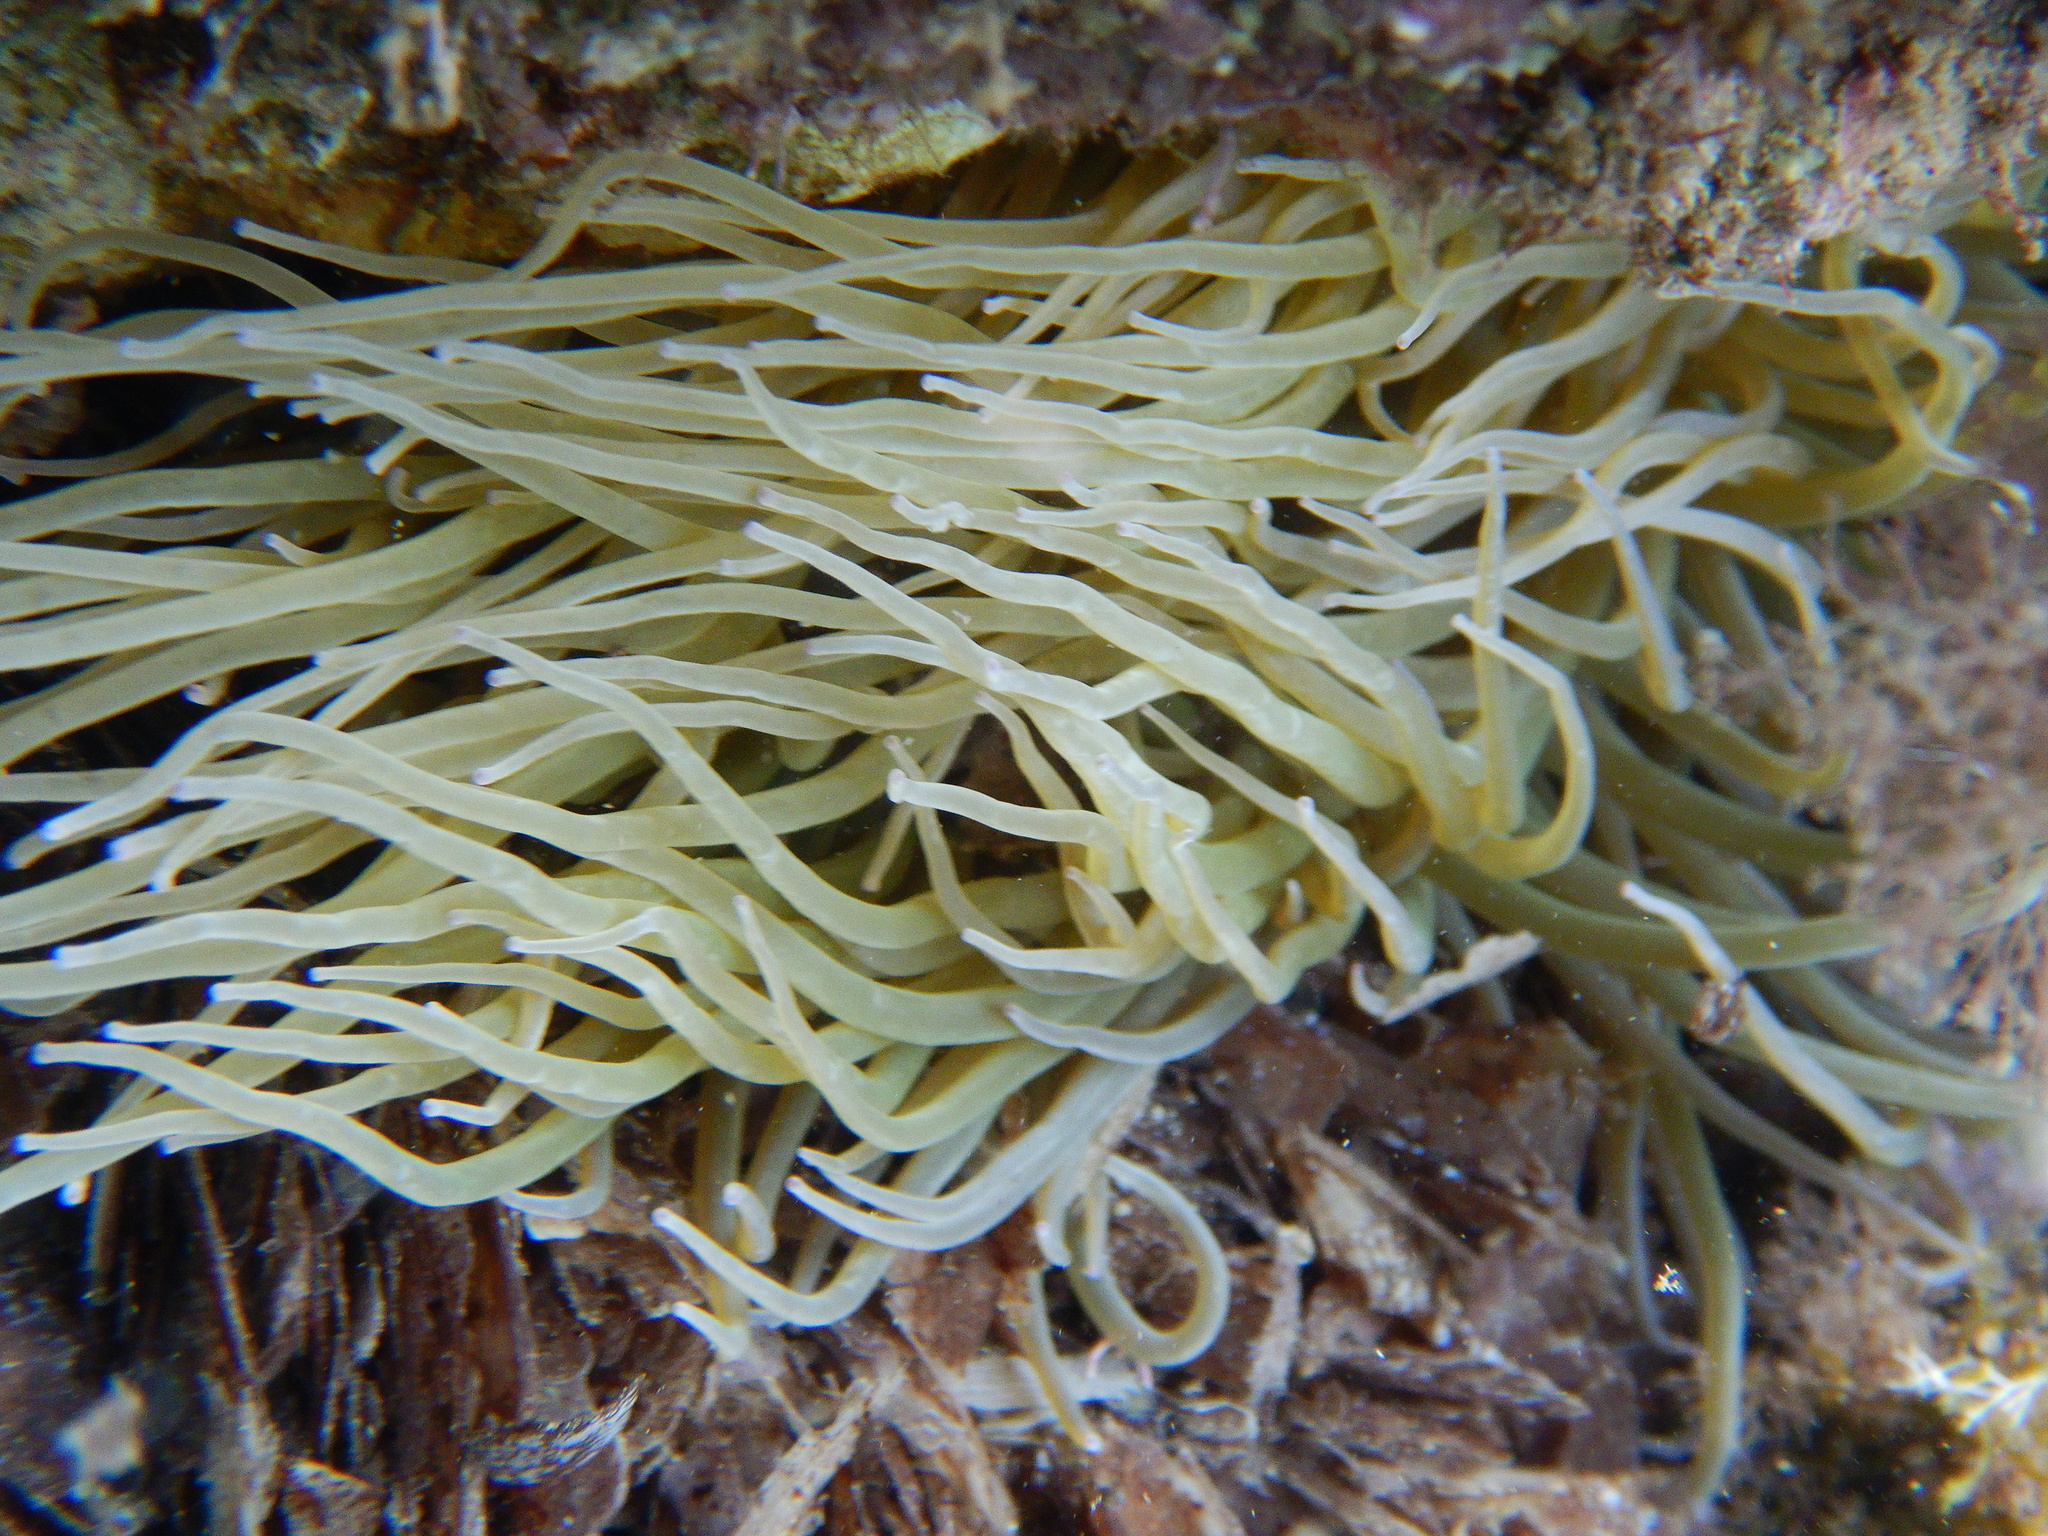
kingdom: Animalia
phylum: Cnidaria
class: Anthozoa
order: Actiniaria
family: Actiniidae
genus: Anemonia
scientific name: Anemonia viridis
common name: Snakelocks anemone
